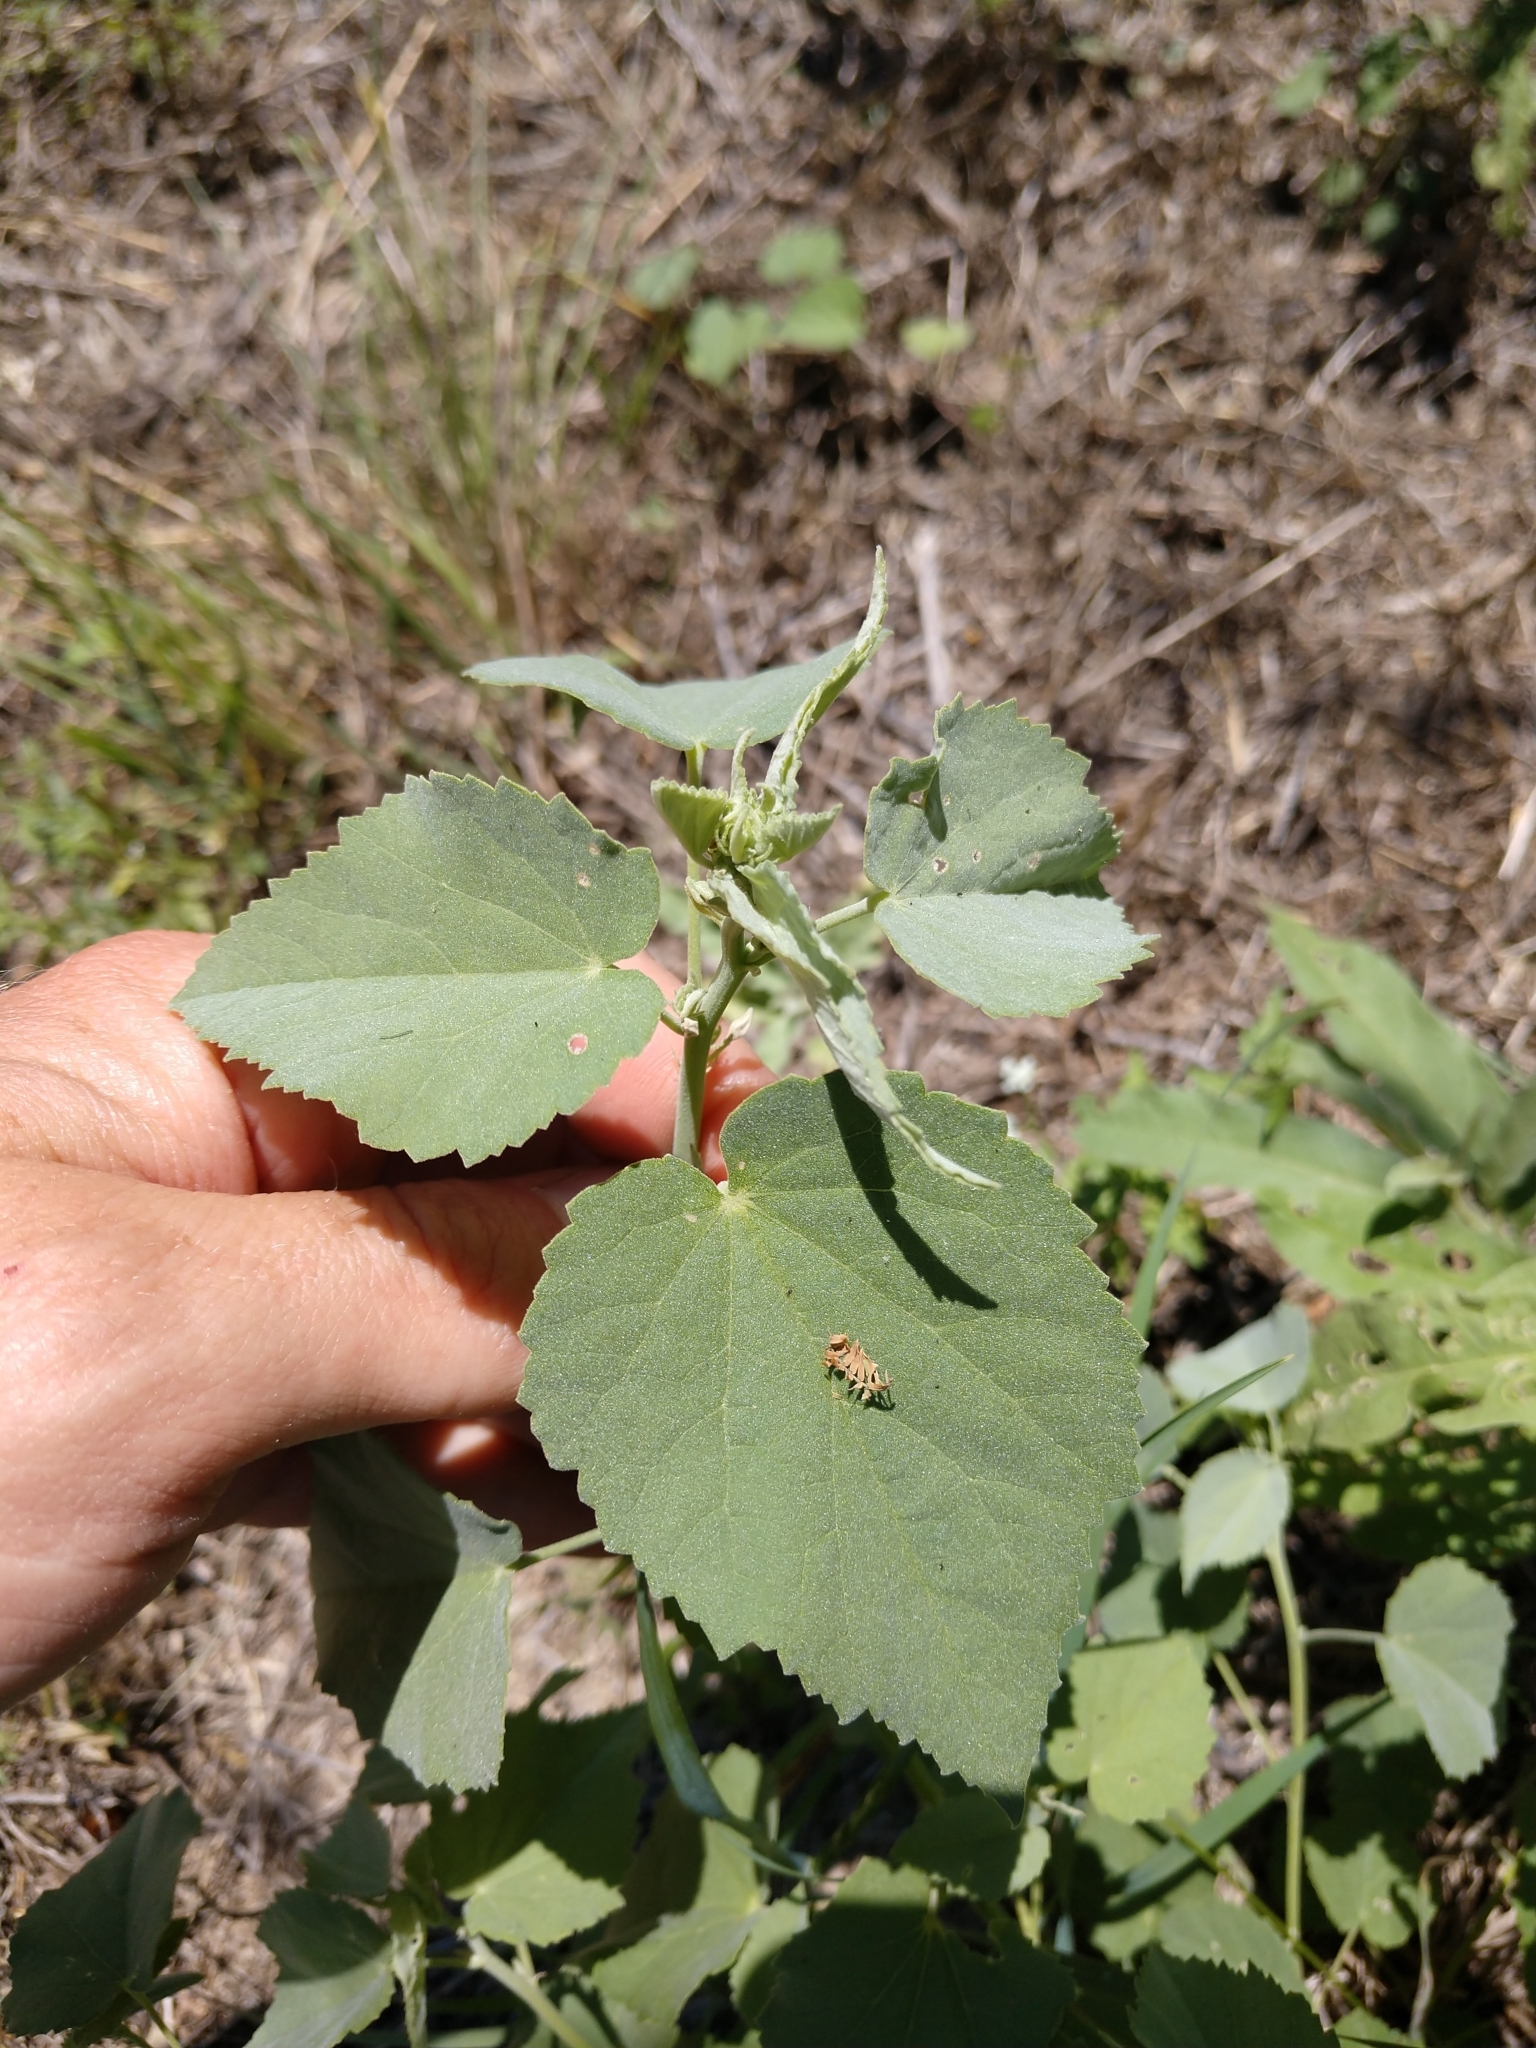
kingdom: Plantae
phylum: Tracheophyta
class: Magnoliopsida
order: Malvales
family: Malvaceae
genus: Abutilon
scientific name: Abutilon fruticosum
